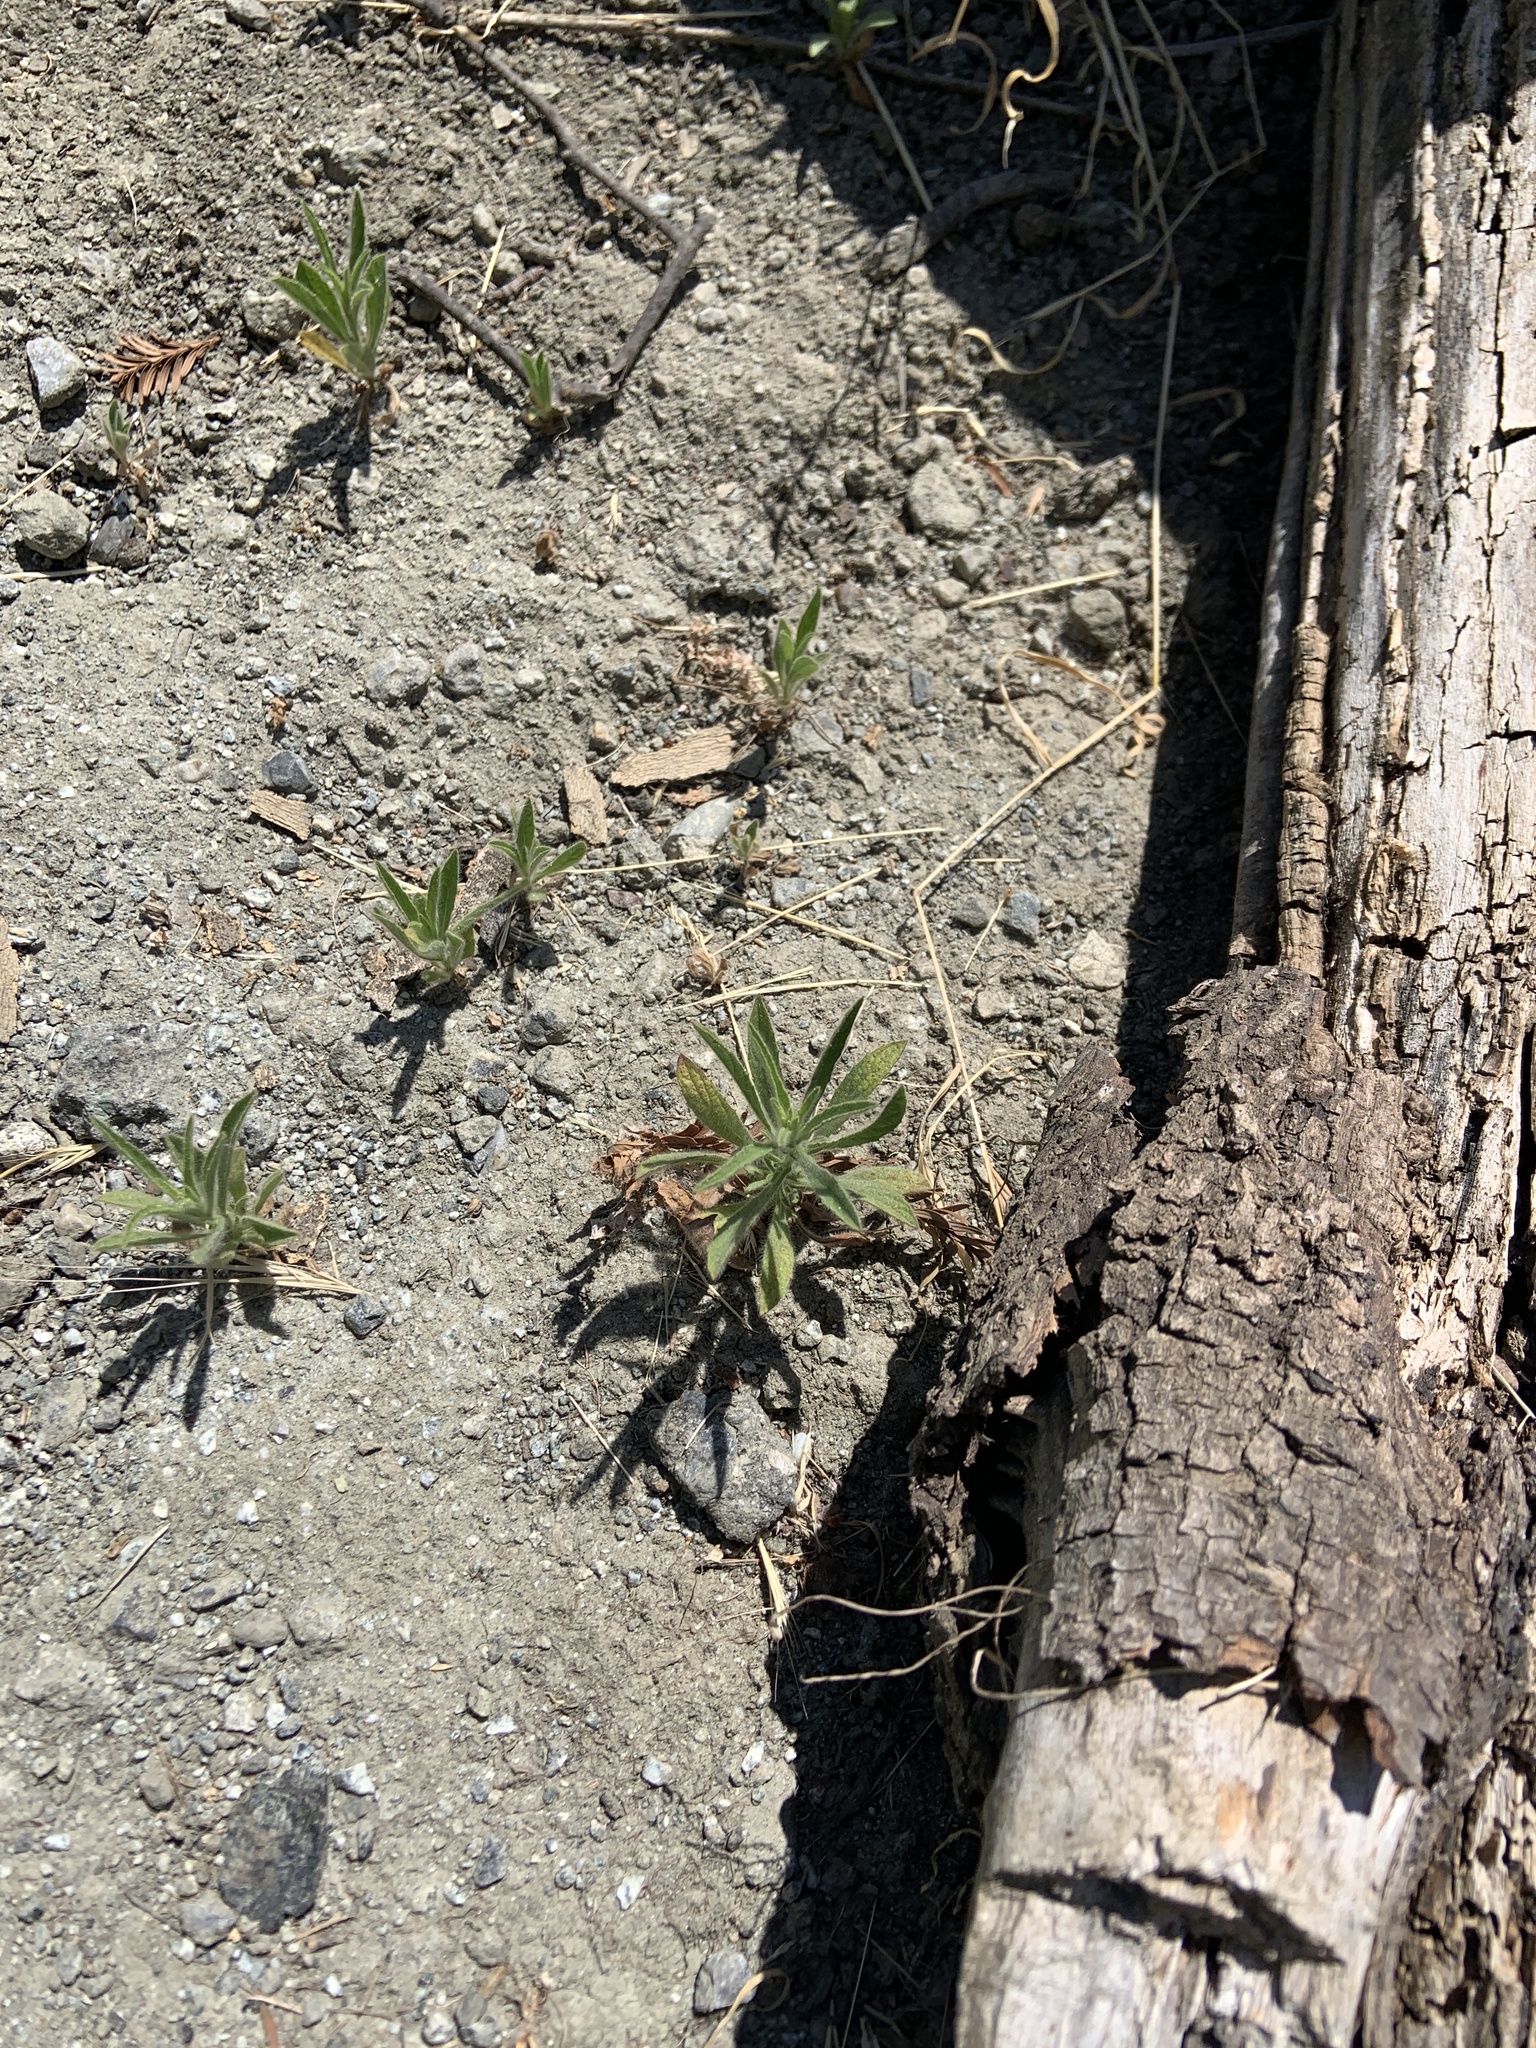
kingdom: Plantae
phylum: Tracheophyta
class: Magnoliopsida
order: Asterales
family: Asteraceae
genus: Dittrichia
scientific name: Dittrichia graveolens
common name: Stinking fleabane
